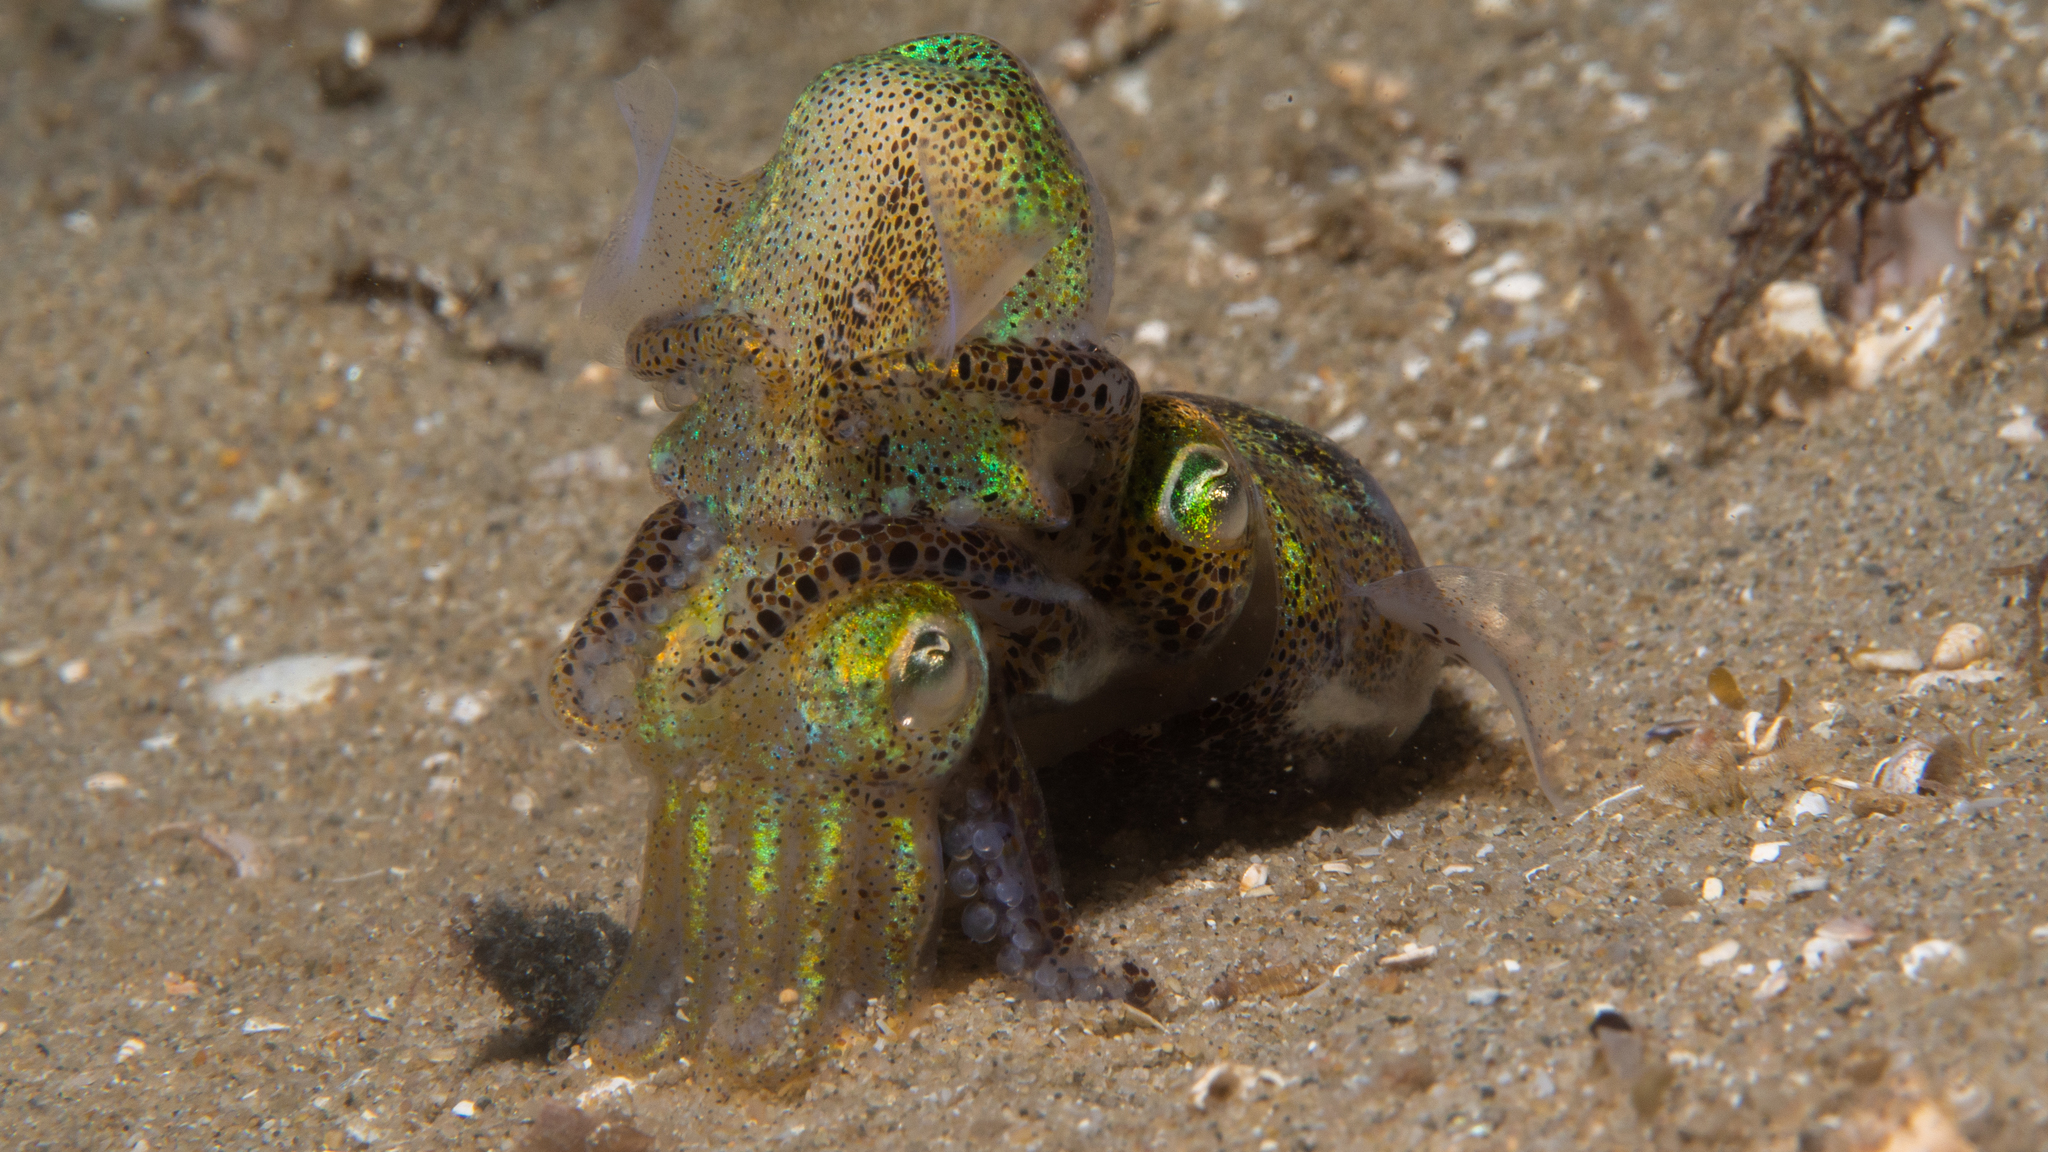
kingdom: Animalia
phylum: Mollusca
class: Cephalopoda
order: Sepiida
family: Sepiolidae
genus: Euprymna
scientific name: Euprymna tasmanica
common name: Southern bobtail squid
